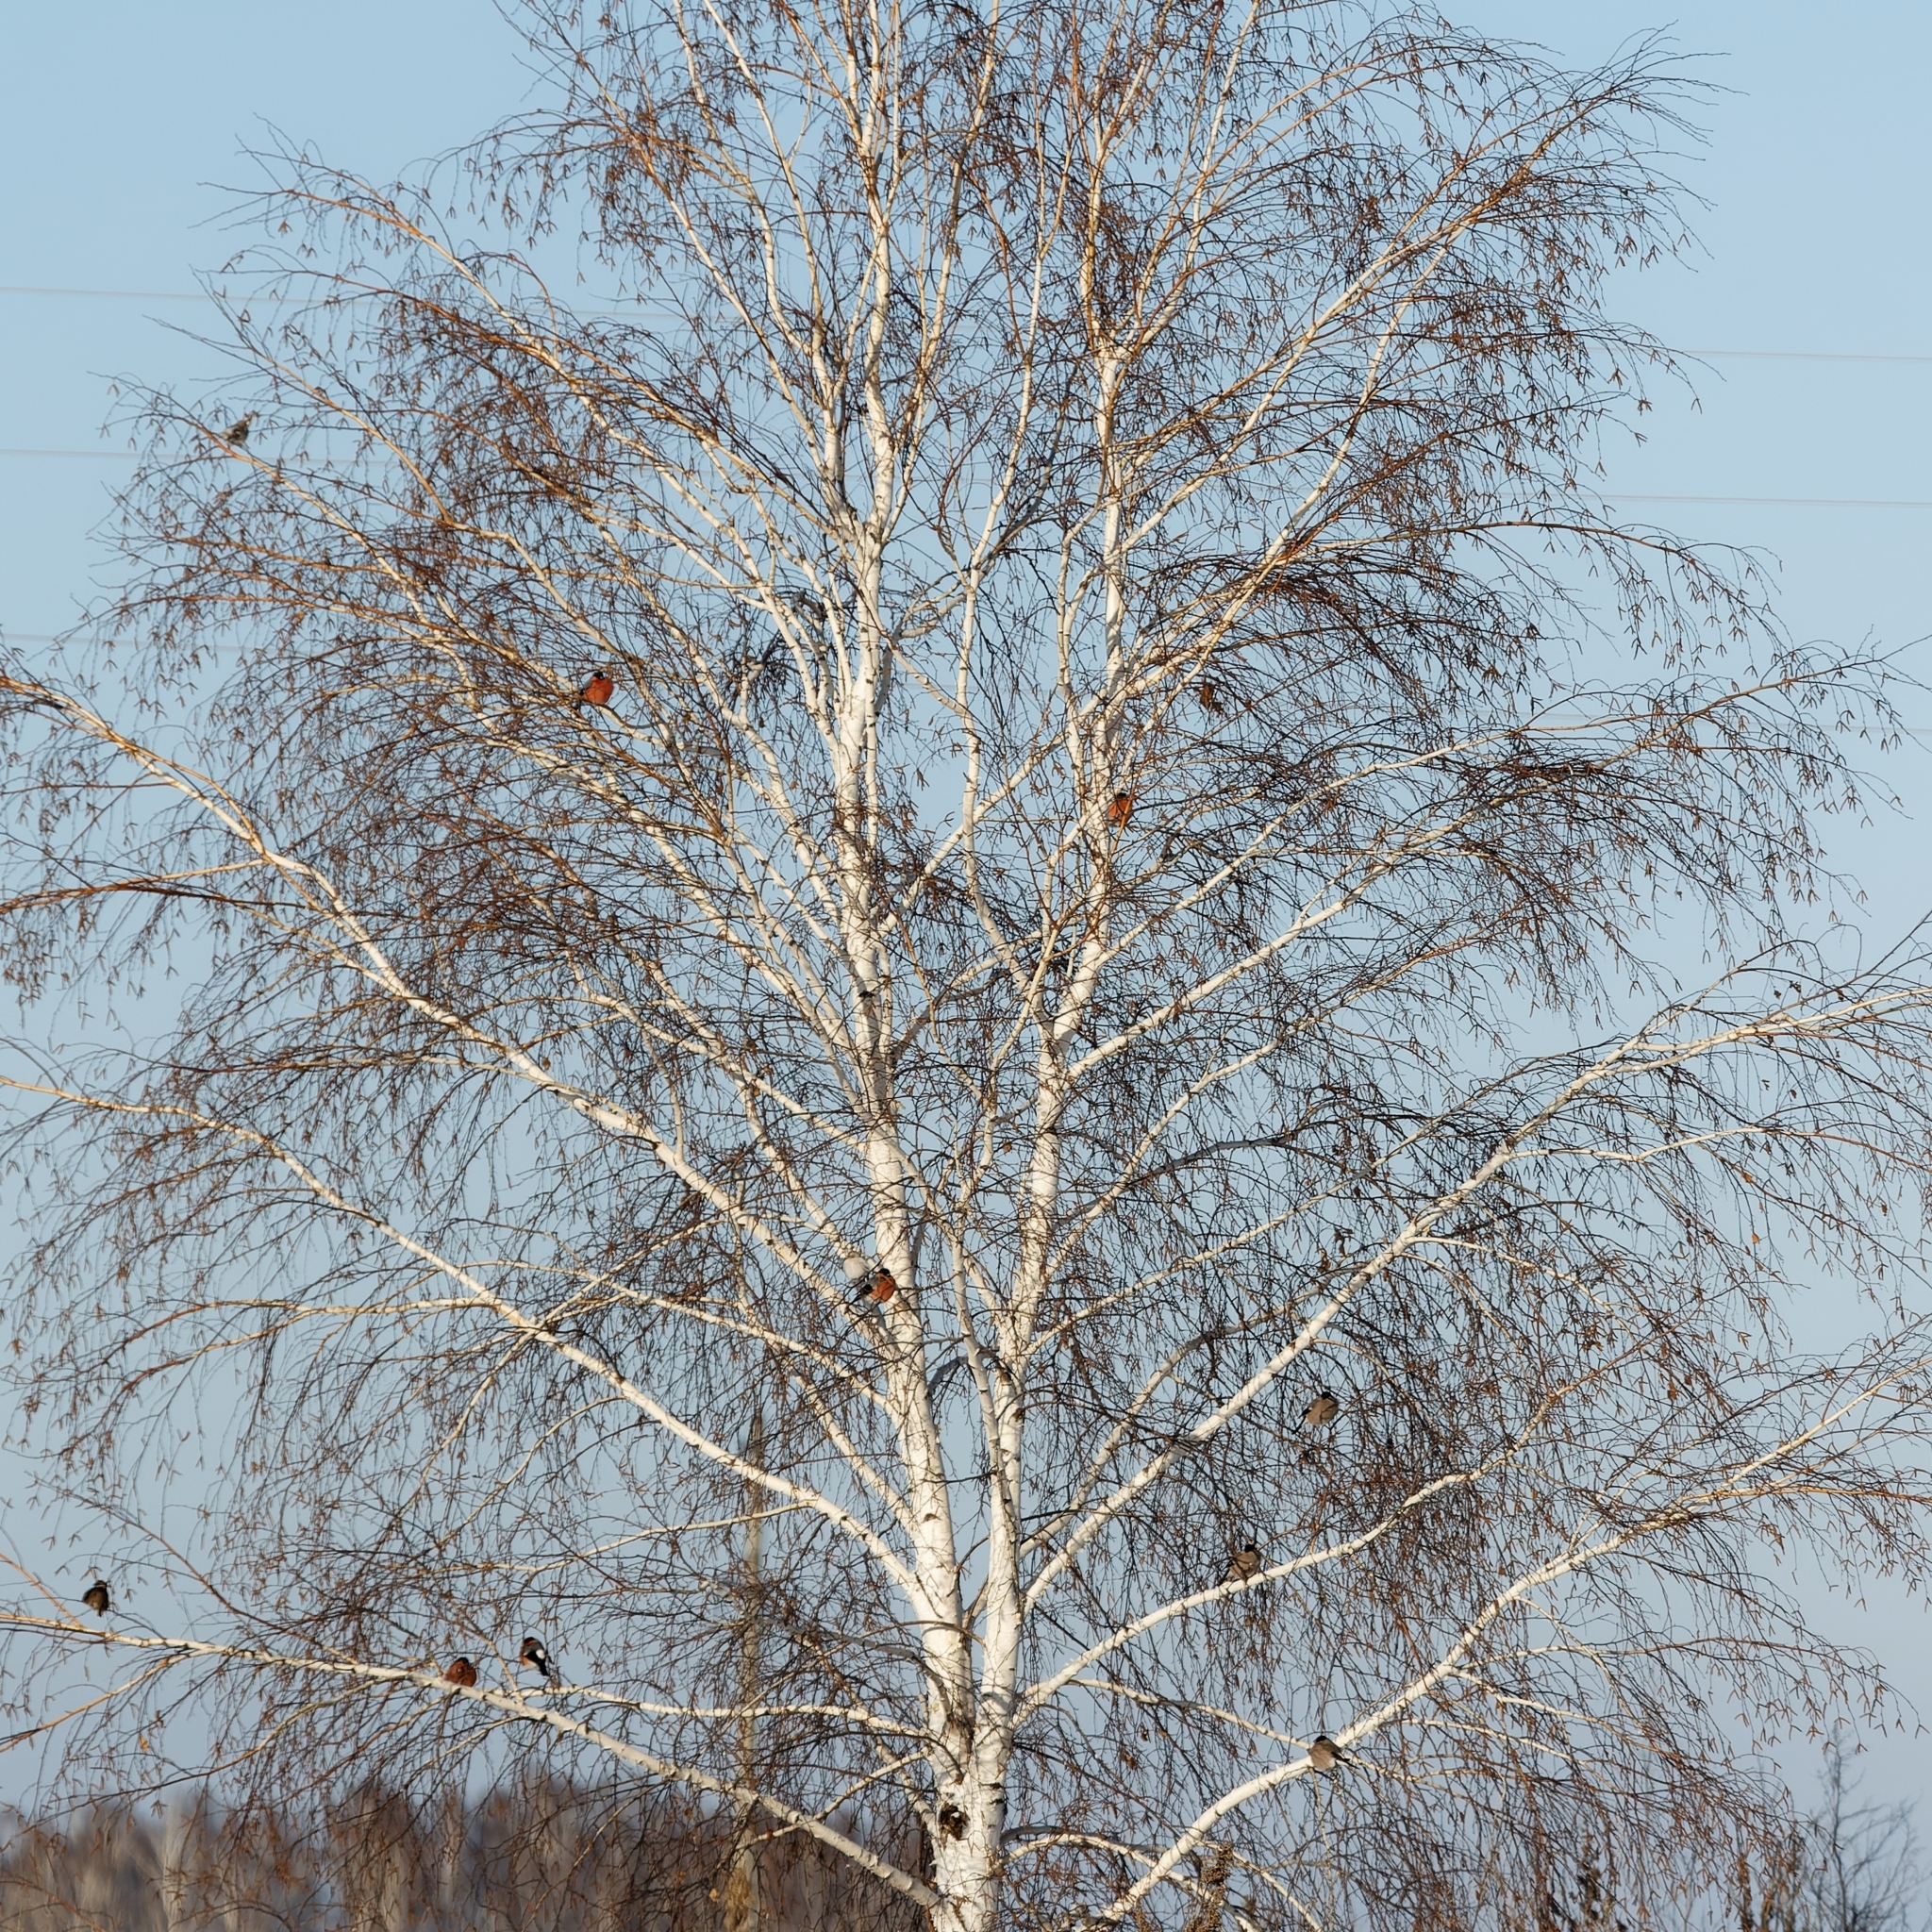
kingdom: Animalia
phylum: Chordata
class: Aves
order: Passeriformes
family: Fringillidae
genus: Pyrrhula
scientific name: Pyrrhula pyrrhula
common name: Eurasian bullfinch
